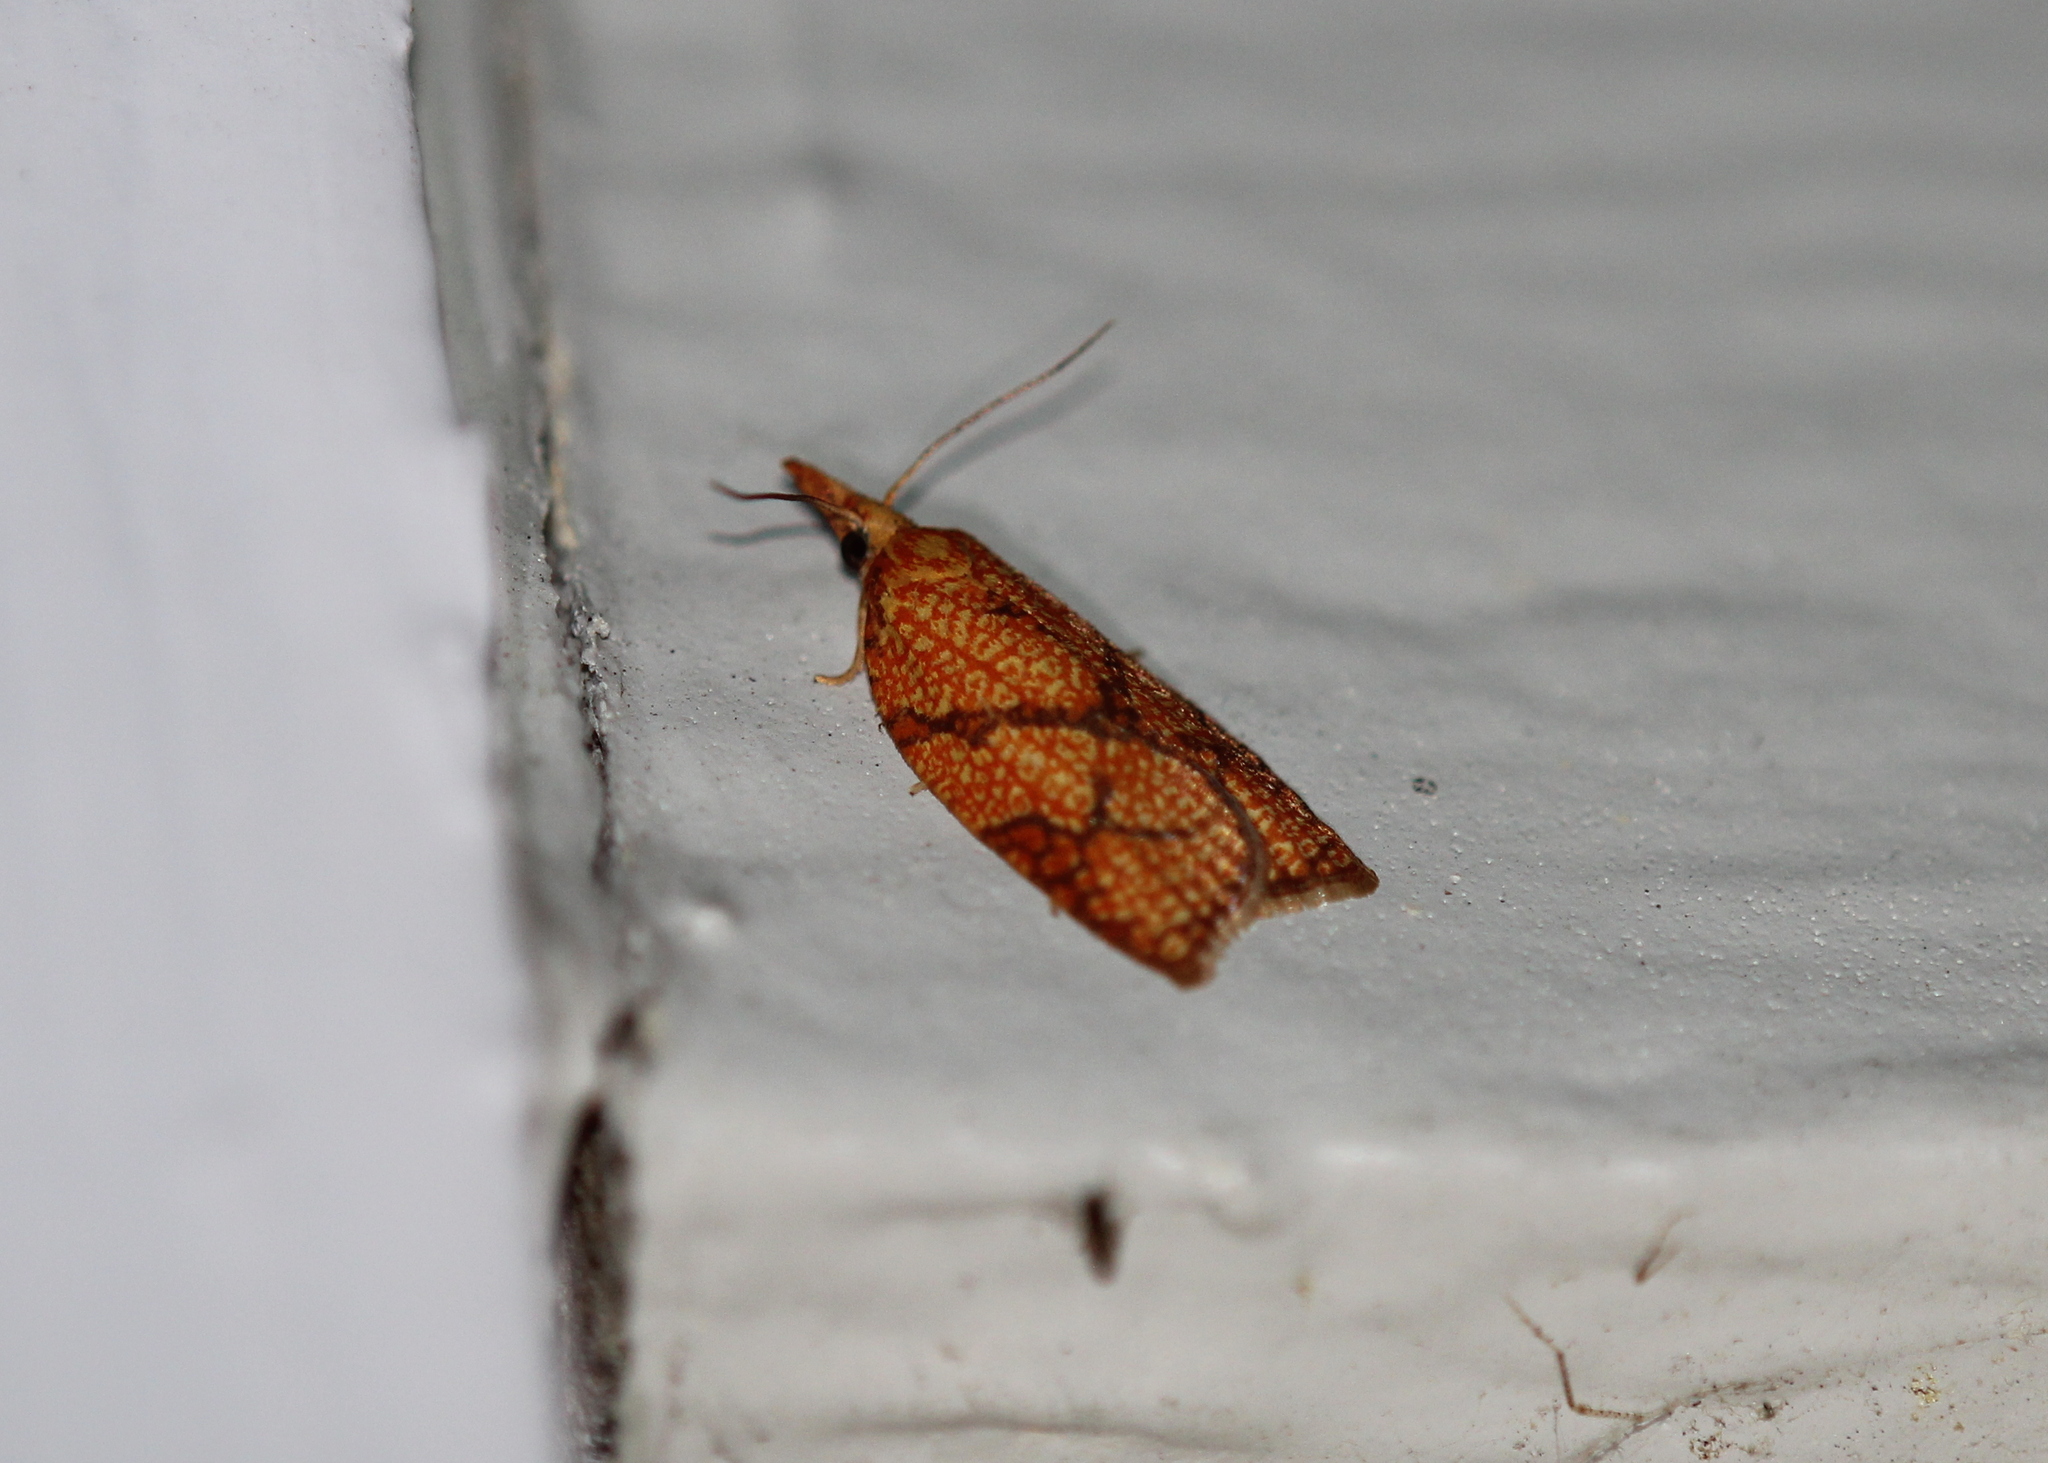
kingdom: Animalia
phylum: Arthropoda
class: Insecta
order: Lepidoptera
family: Tortricidae
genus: Cenopis
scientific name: Cenopis reticulatana
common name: Reticulated fruitworm moth
